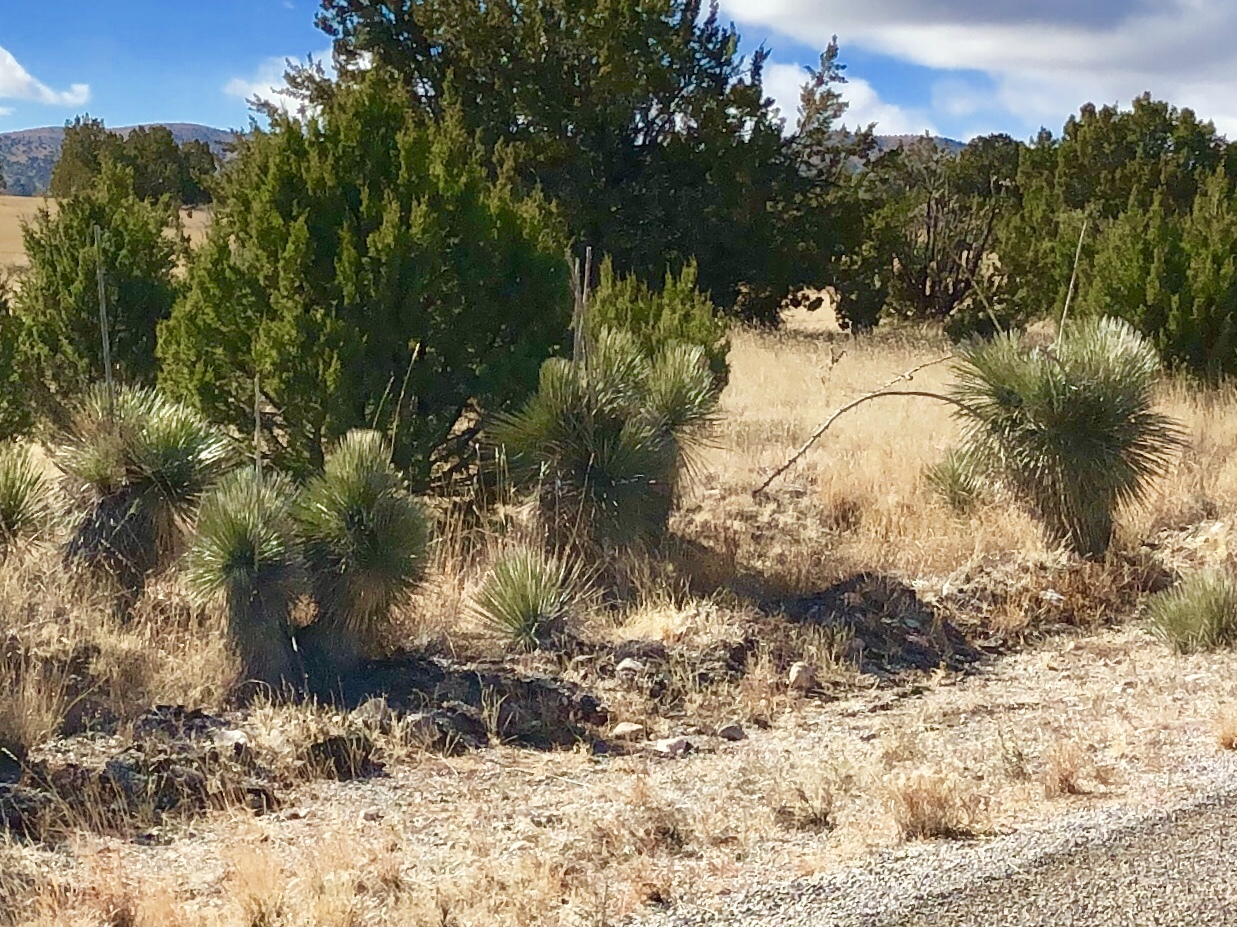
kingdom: Plantae
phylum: Tracheophyta
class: Liliopsida
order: Asparagales
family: Asparagaceae
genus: Yucca
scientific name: Yucca elata
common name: Palmella
